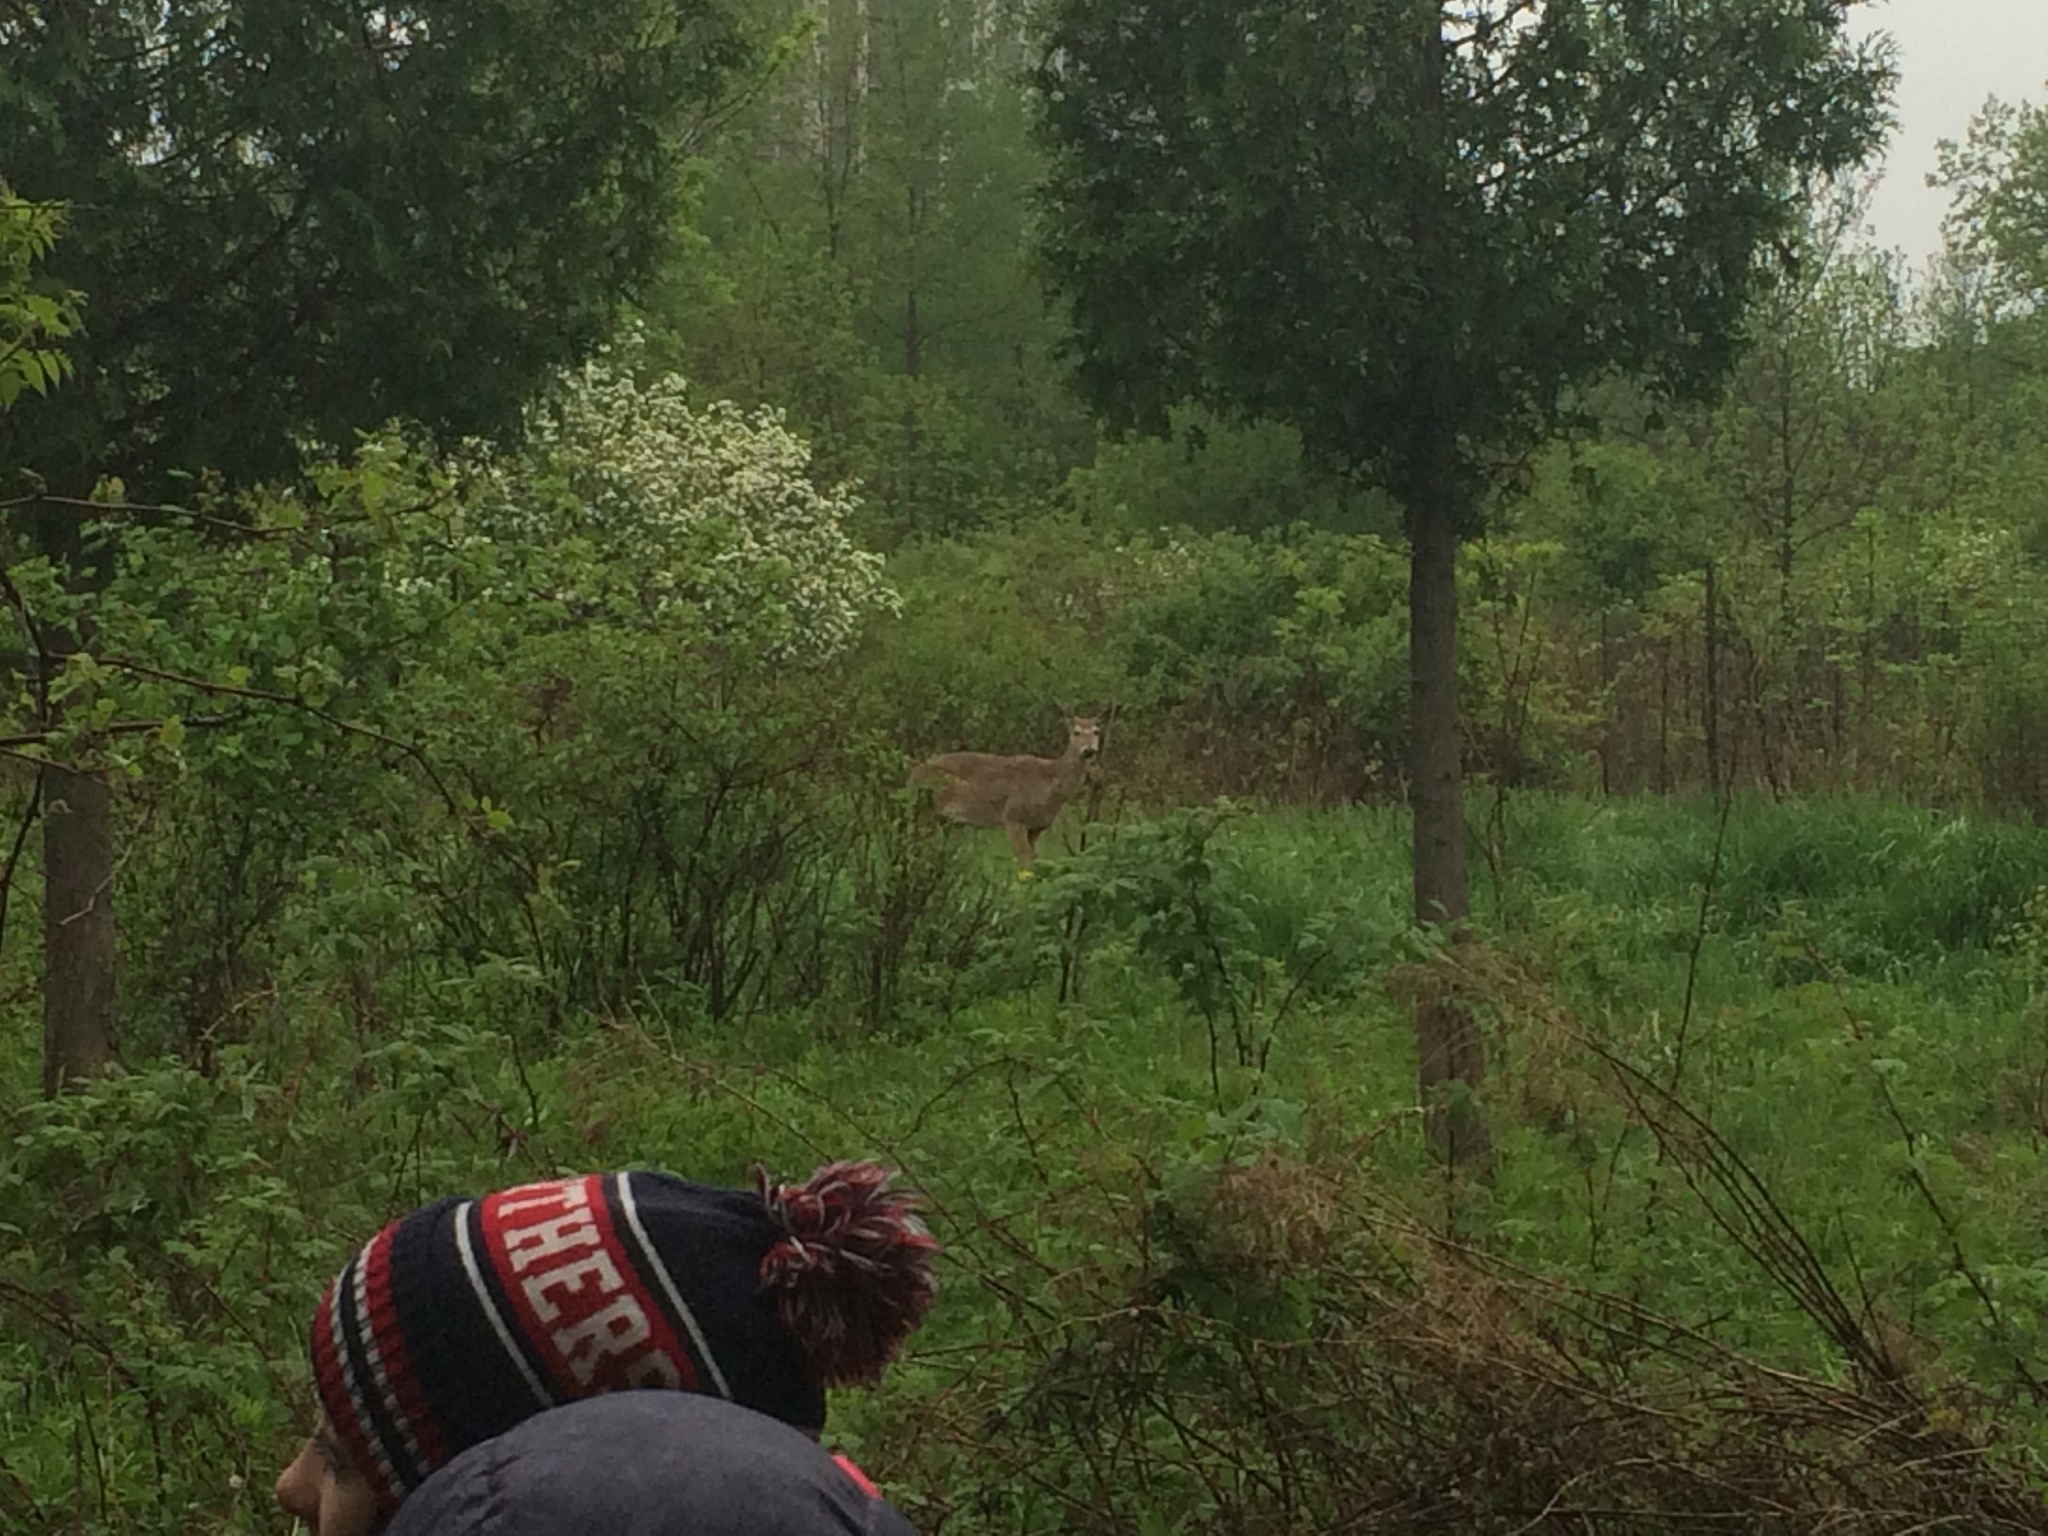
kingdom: Animalia
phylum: Chordata
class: Mammalia
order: Artiodactyla
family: Cervidae
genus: Odocoileus
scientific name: Odocoileus virginianus
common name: White-tailed deer
